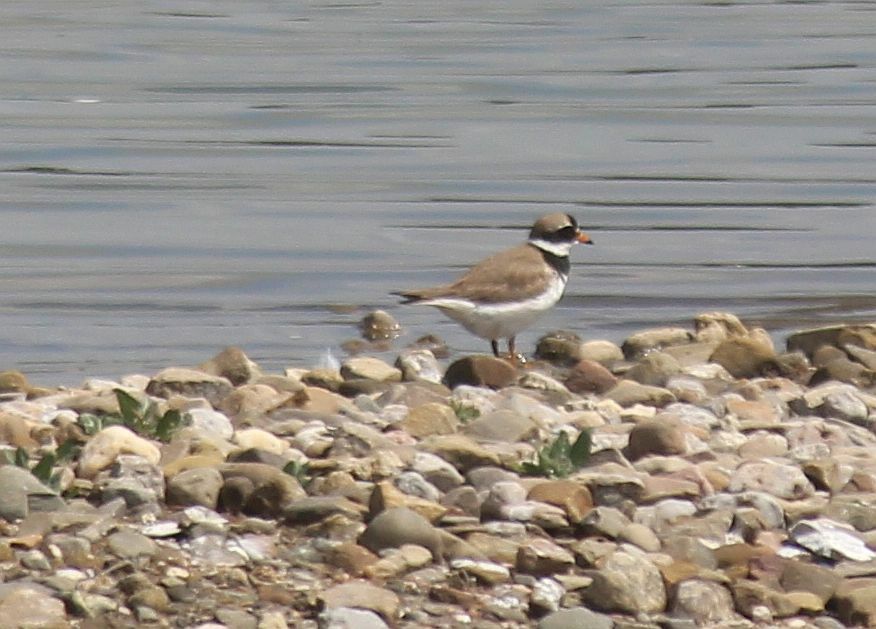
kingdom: Animalia
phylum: Chordata
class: Aves
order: Charadriiformes
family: Charadriidae
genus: Charadrius
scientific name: Charadrius hiaticula
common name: Common ringed plover
